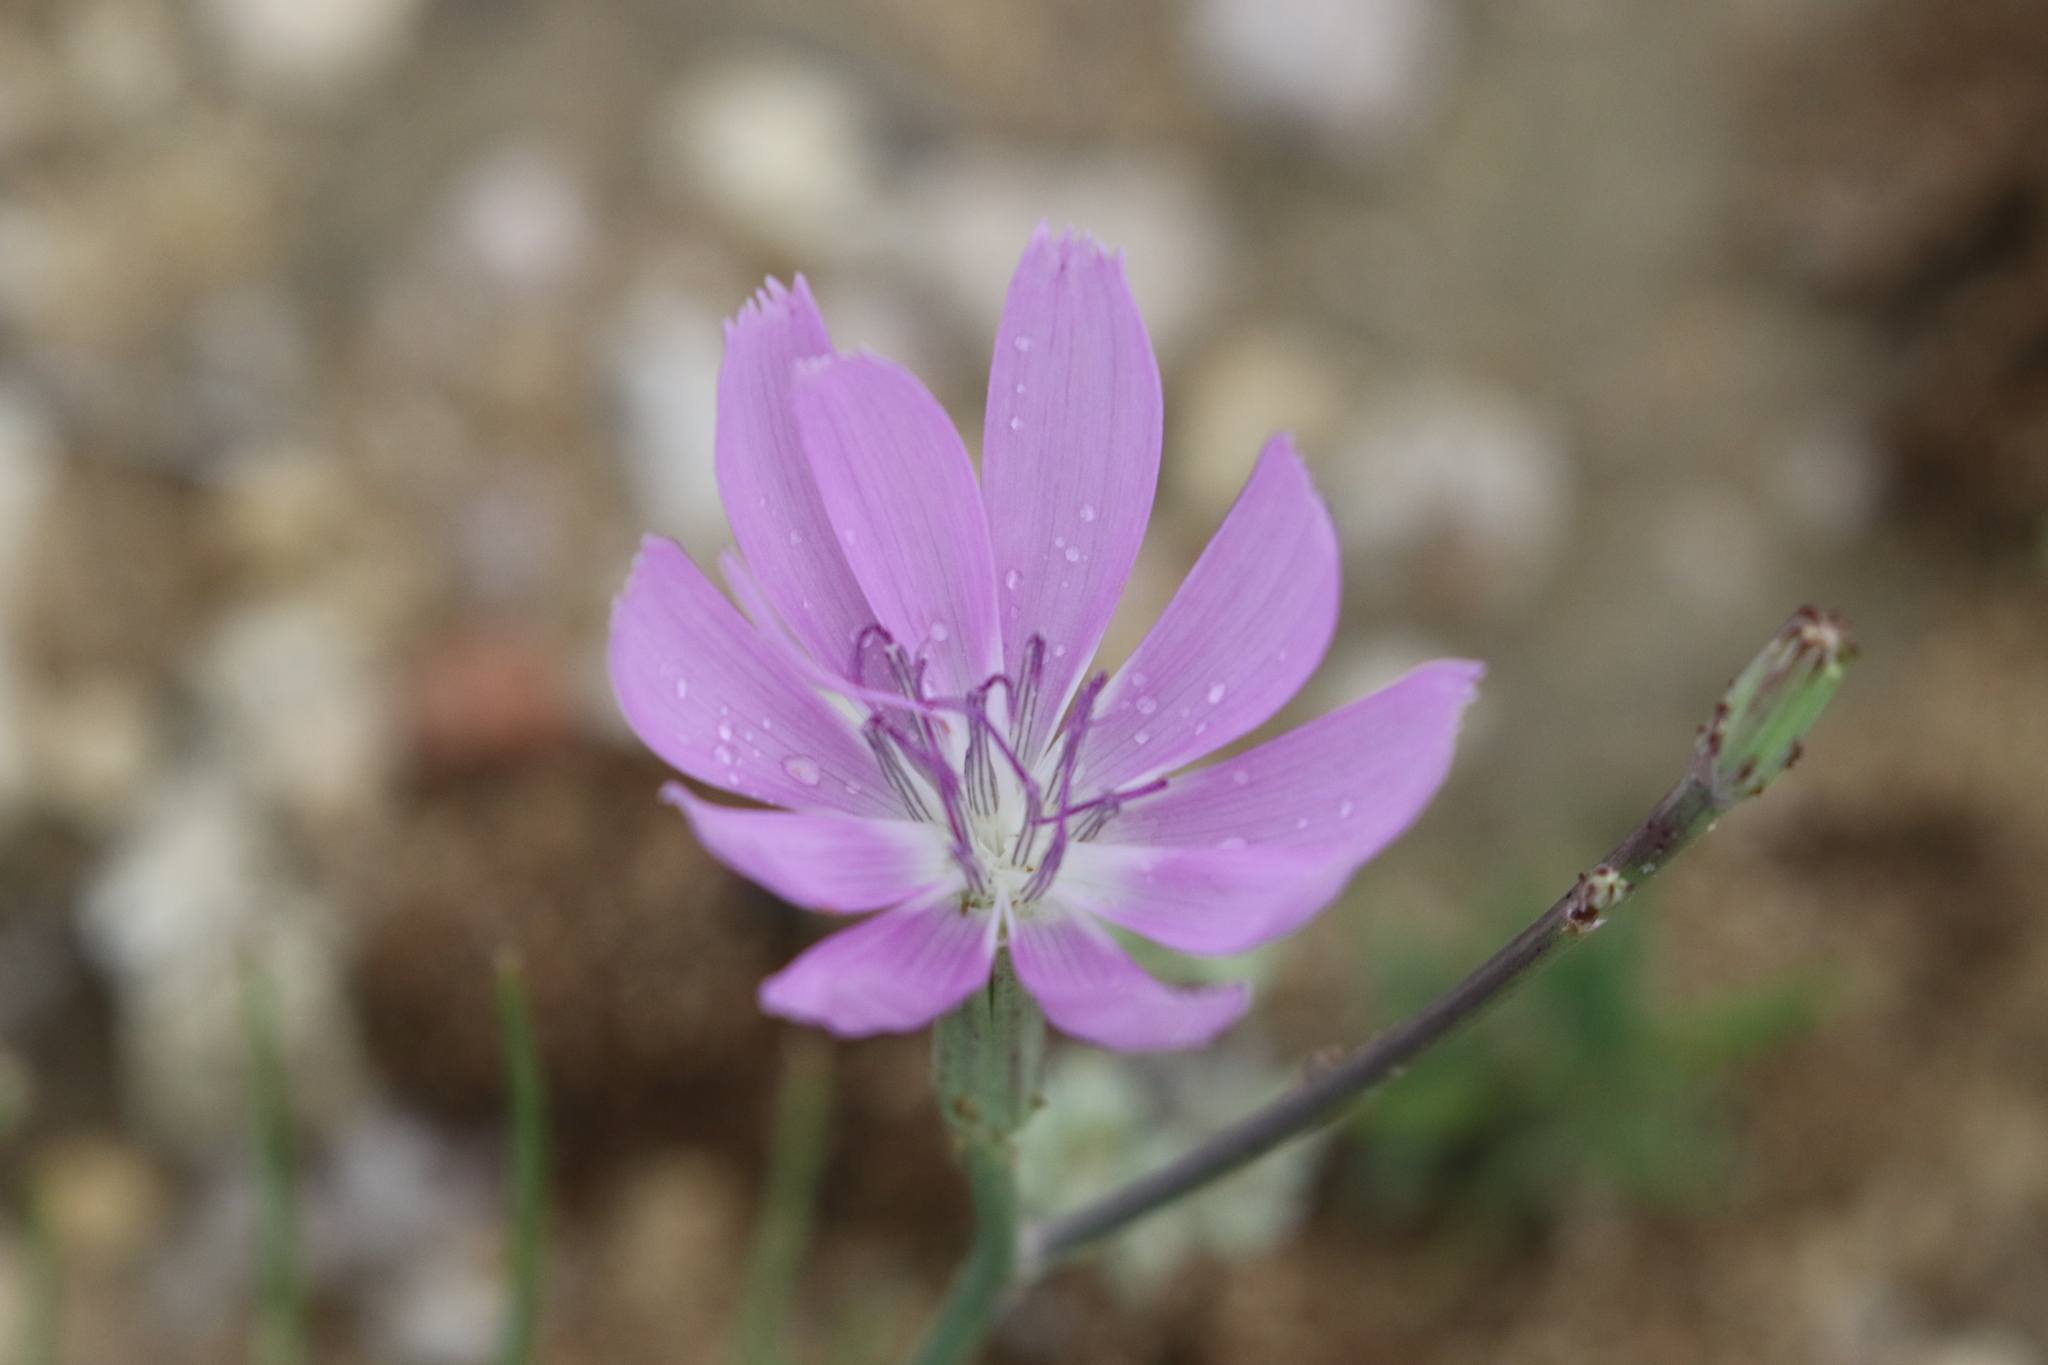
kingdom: Plantae
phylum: Tracheophyta
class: Magnoliopsida
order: Asterales
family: Asteraceae
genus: Lygodesmia
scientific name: Lygodesmia texana
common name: Texas skeleton-plant
